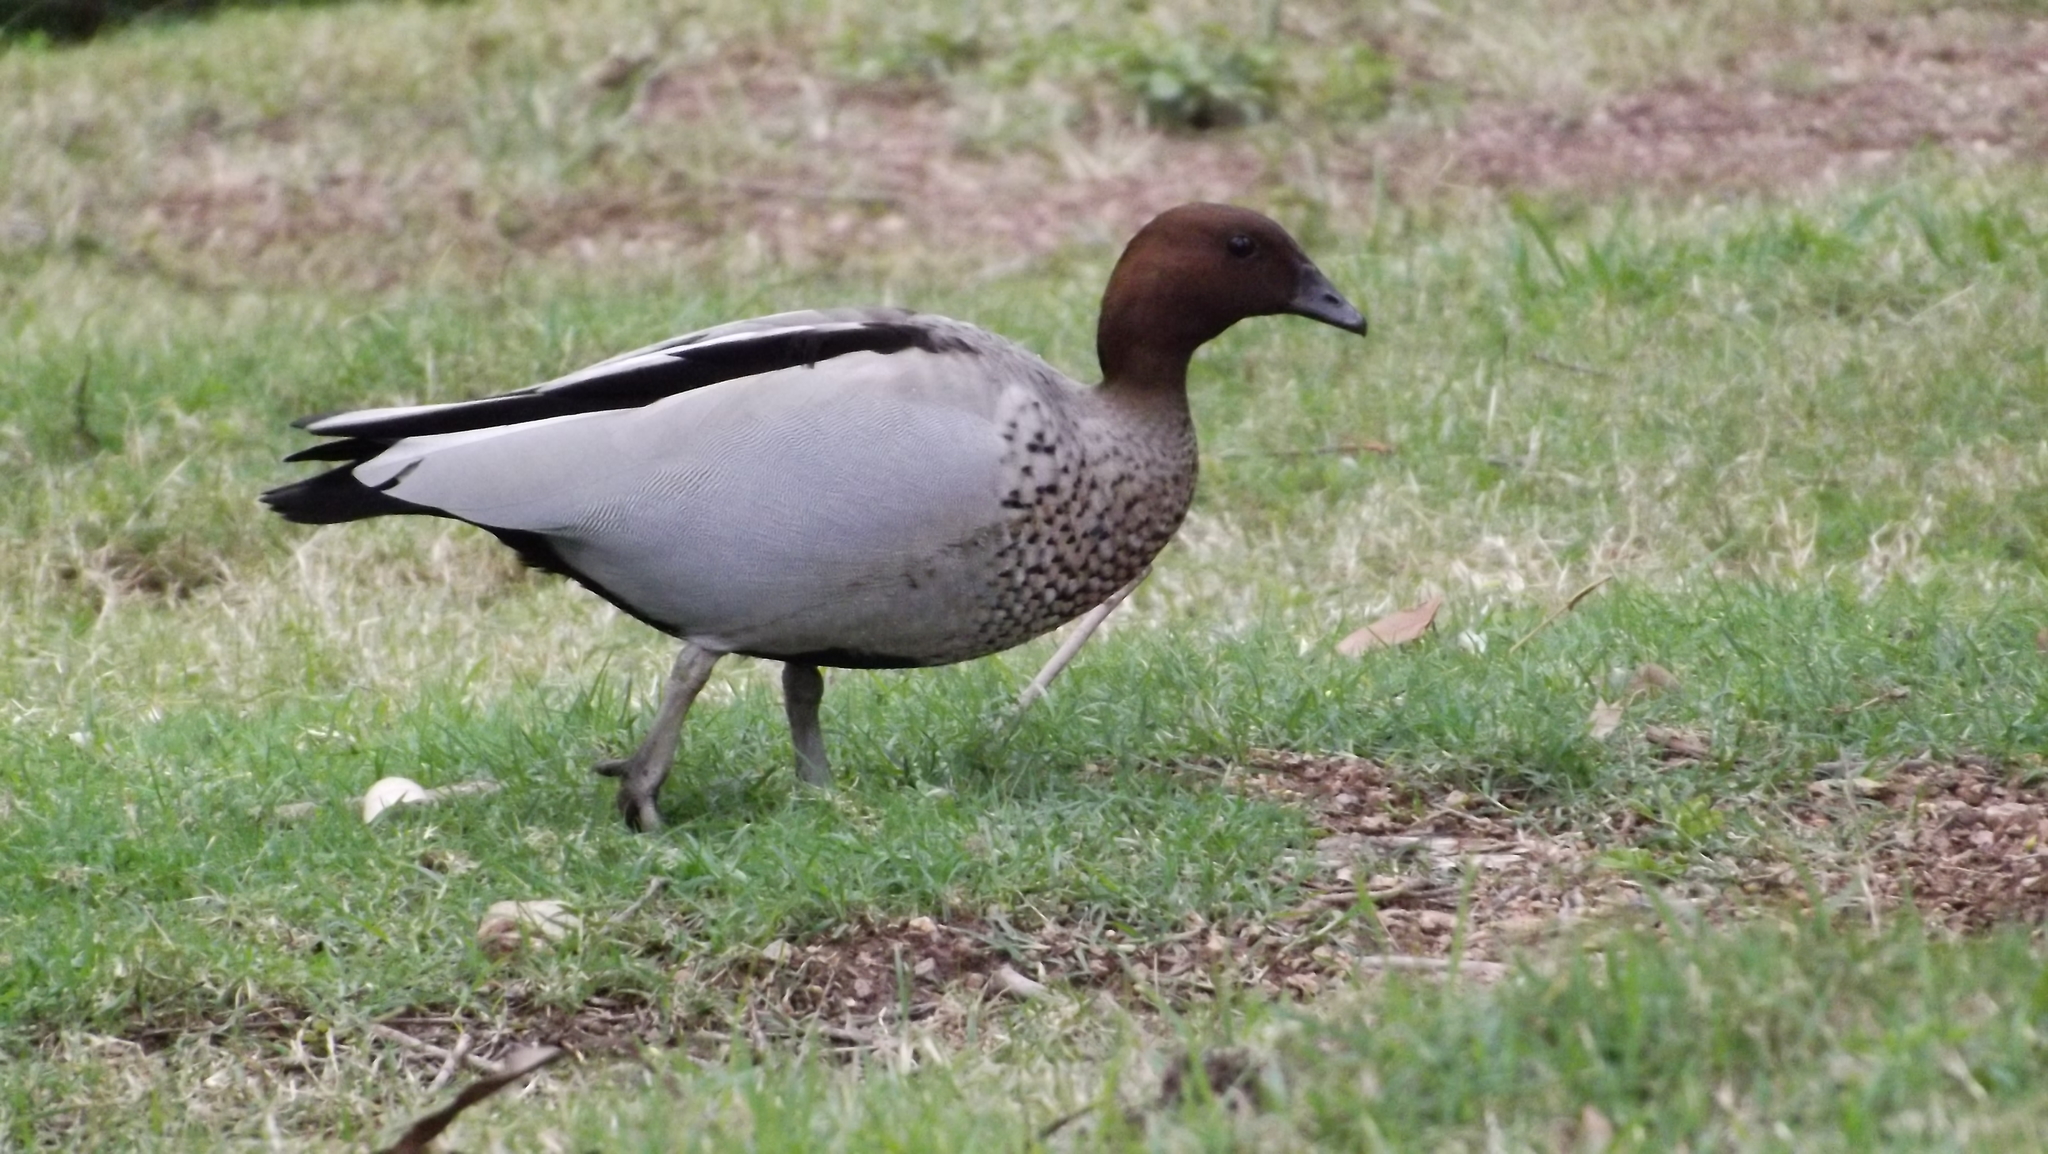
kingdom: Animalia
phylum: Chordata
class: Aves
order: Anseriformes
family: Anatidae
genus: Chenonetta
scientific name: Chenonetta jubata
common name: Maned duck
